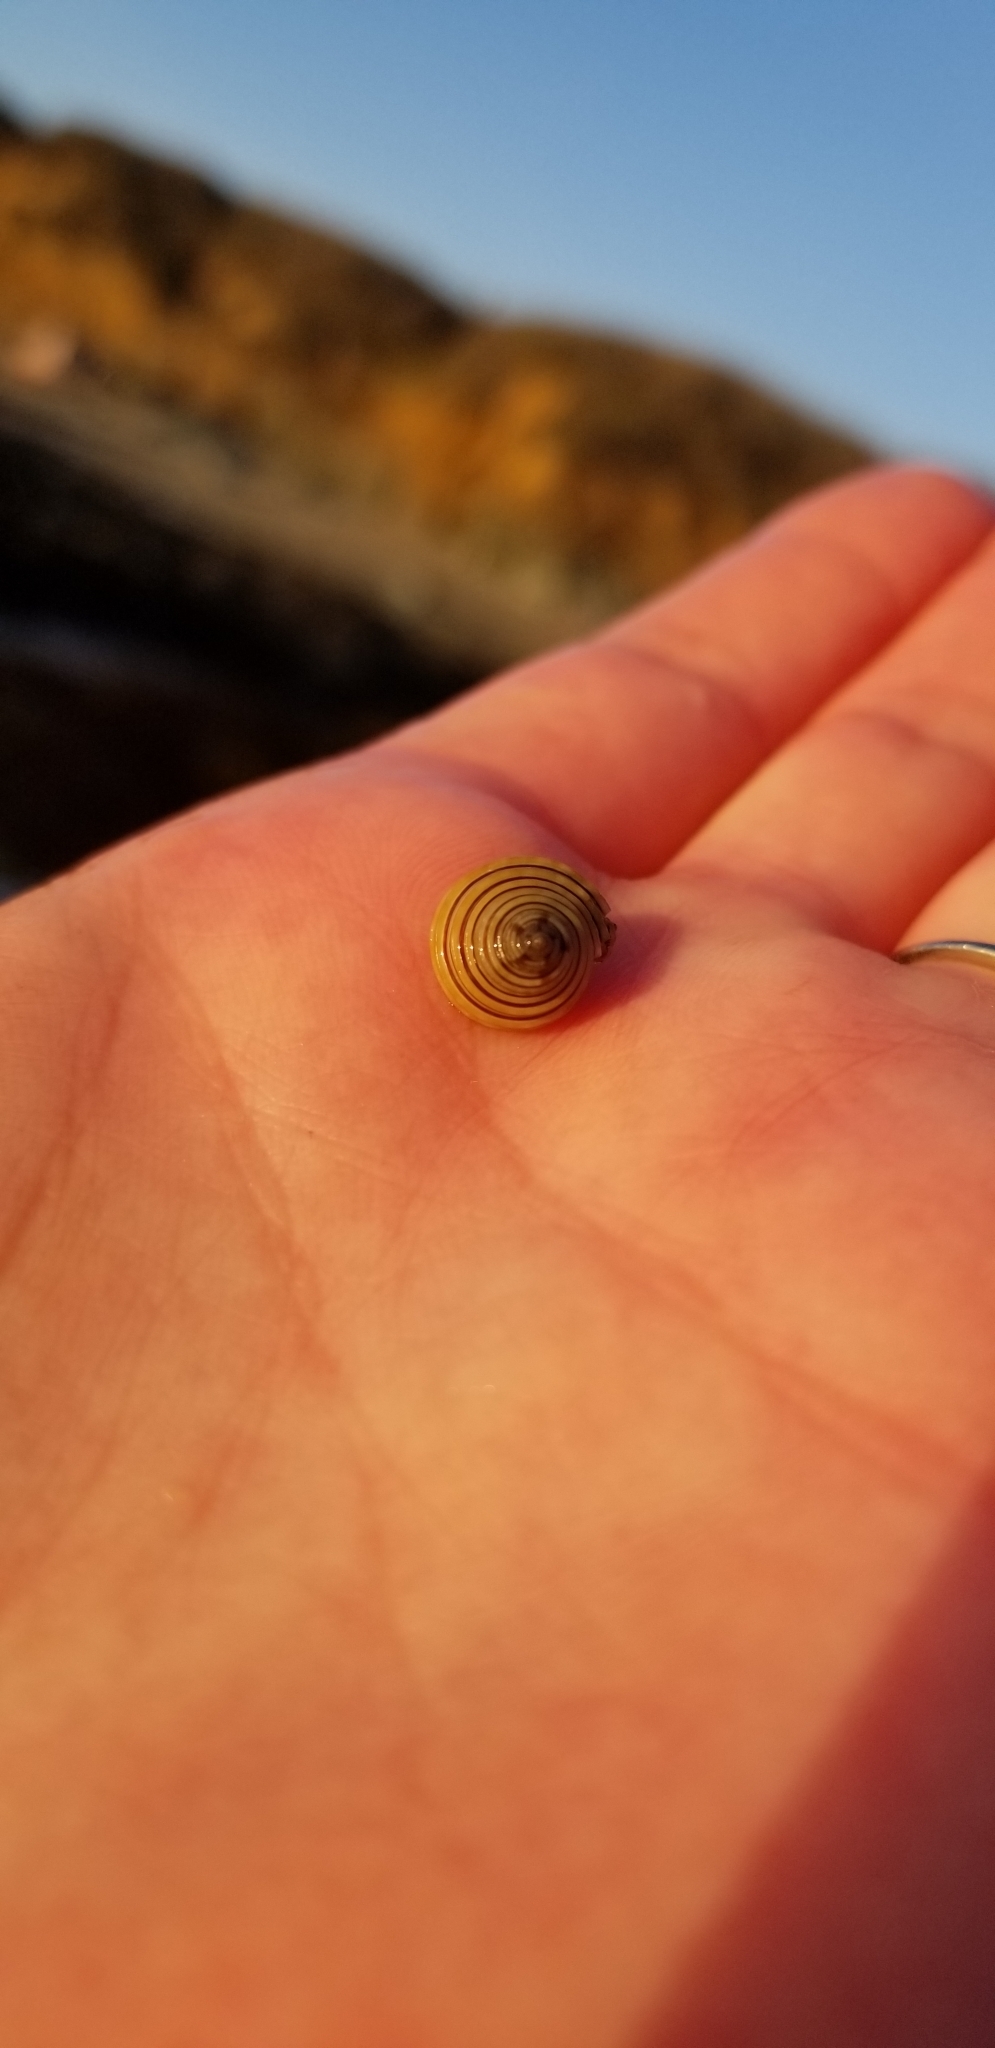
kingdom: Animalia
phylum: Mollusca
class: Gastropoda
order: Trochida
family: Calliostomatidae
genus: Calliostoma
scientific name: Calliostoma canaliculatum
